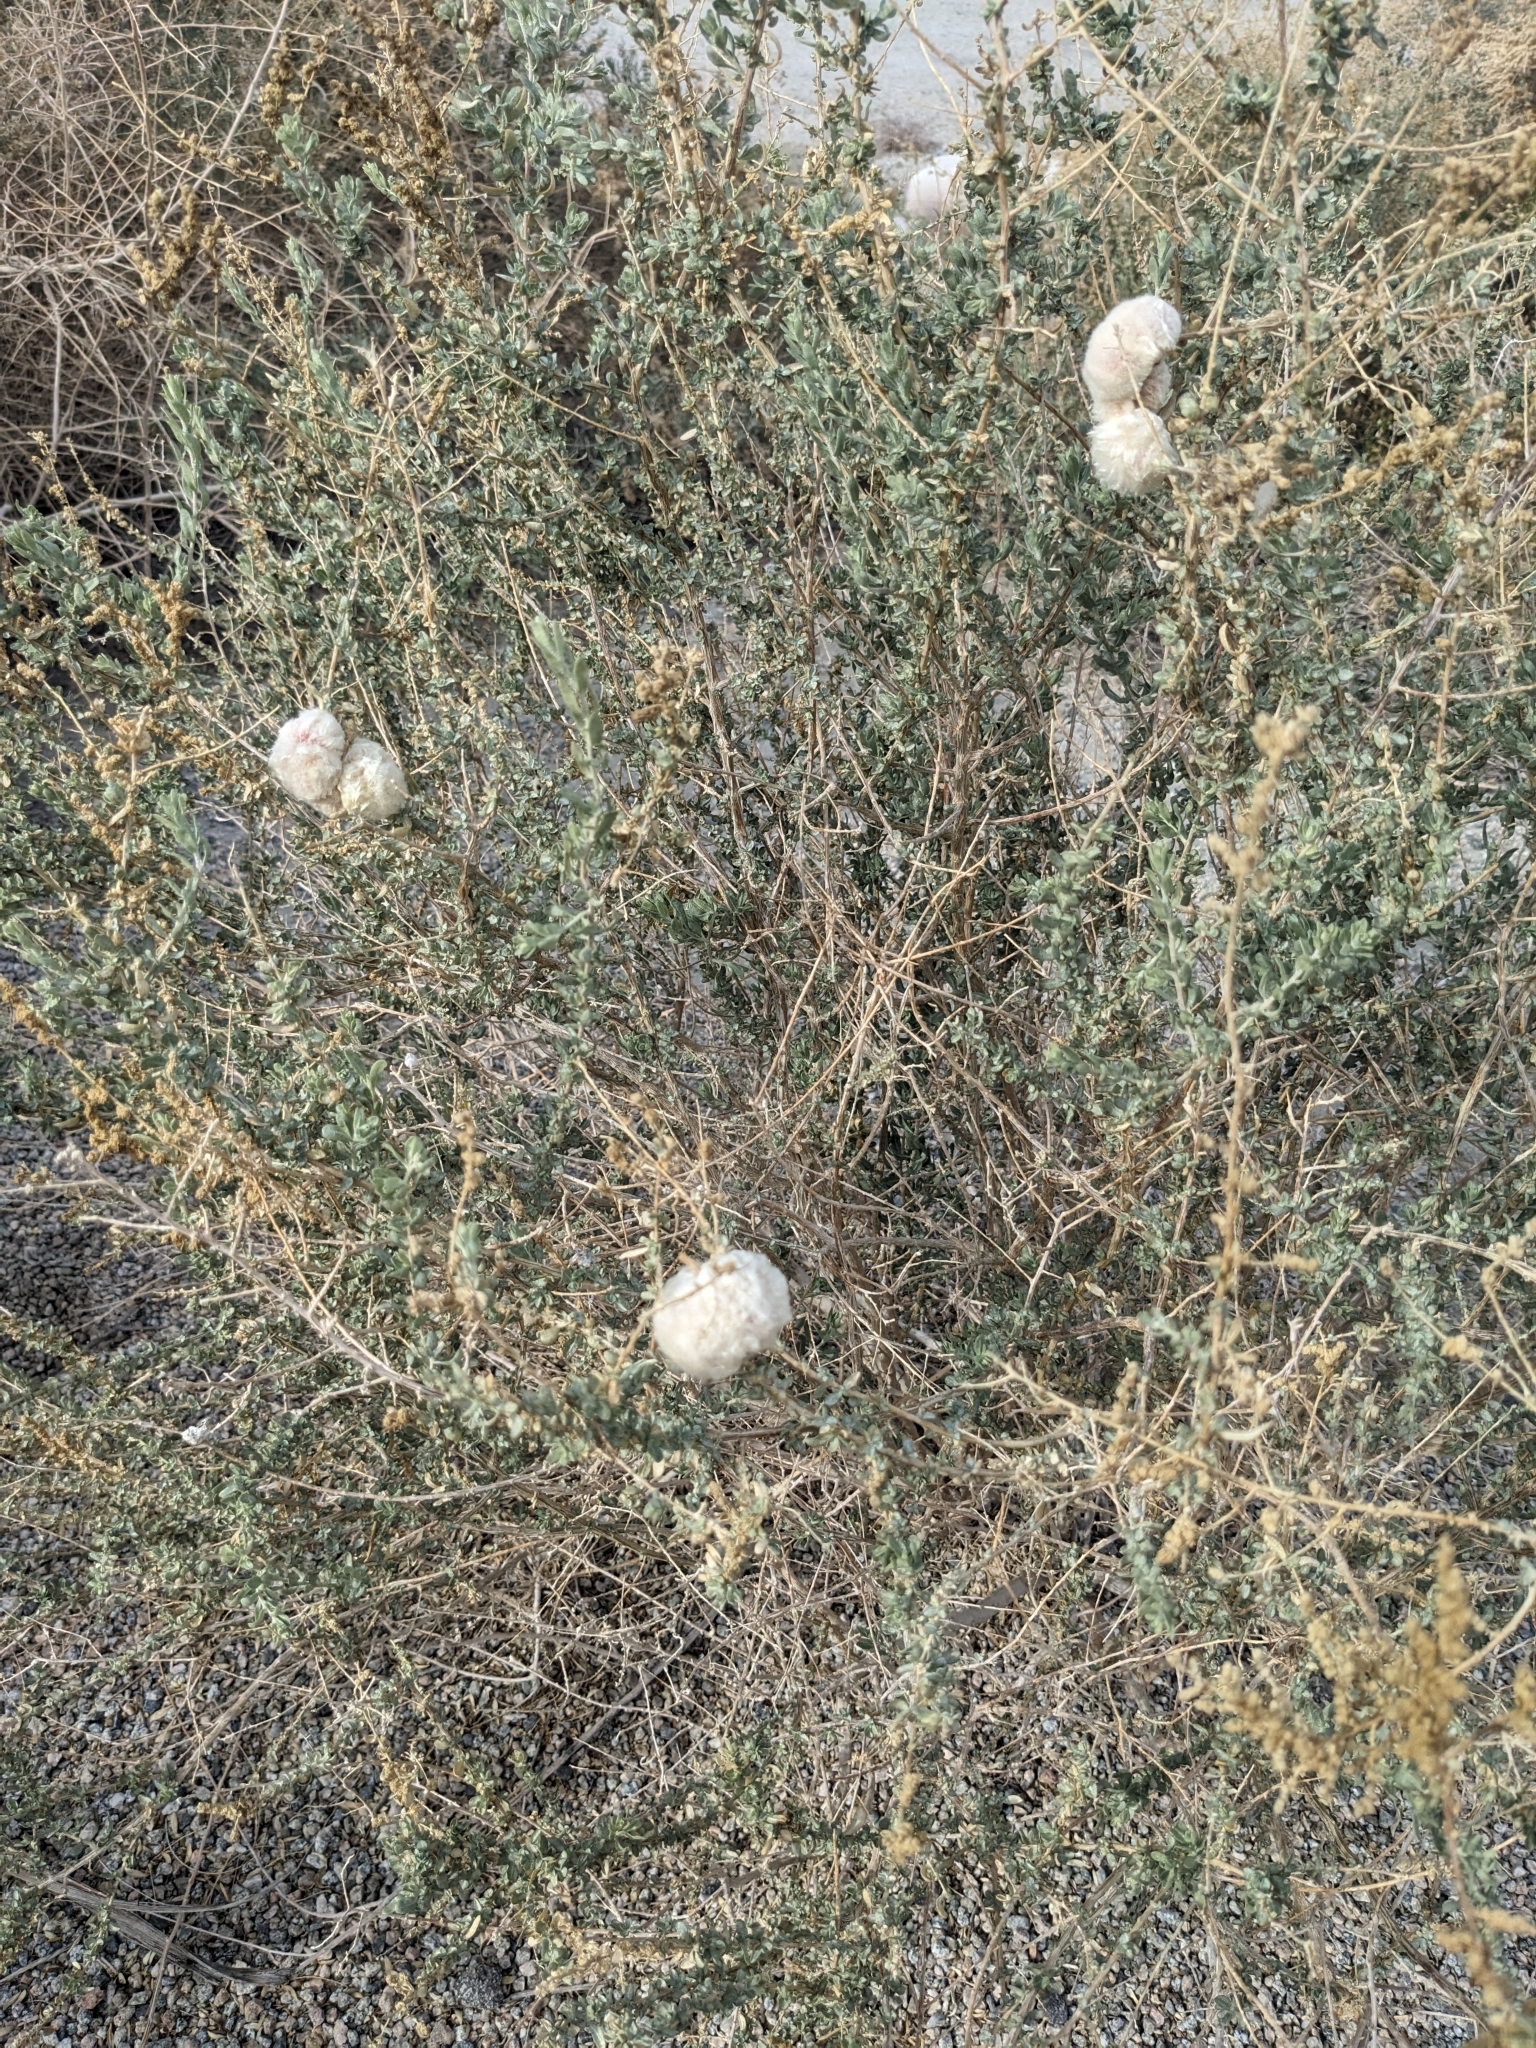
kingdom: Animalia
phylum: Arthropoda
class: Insecta
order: Diptera
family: Cecidomyiidae
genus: Asphondylia
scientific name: Asphondylia floccosa
